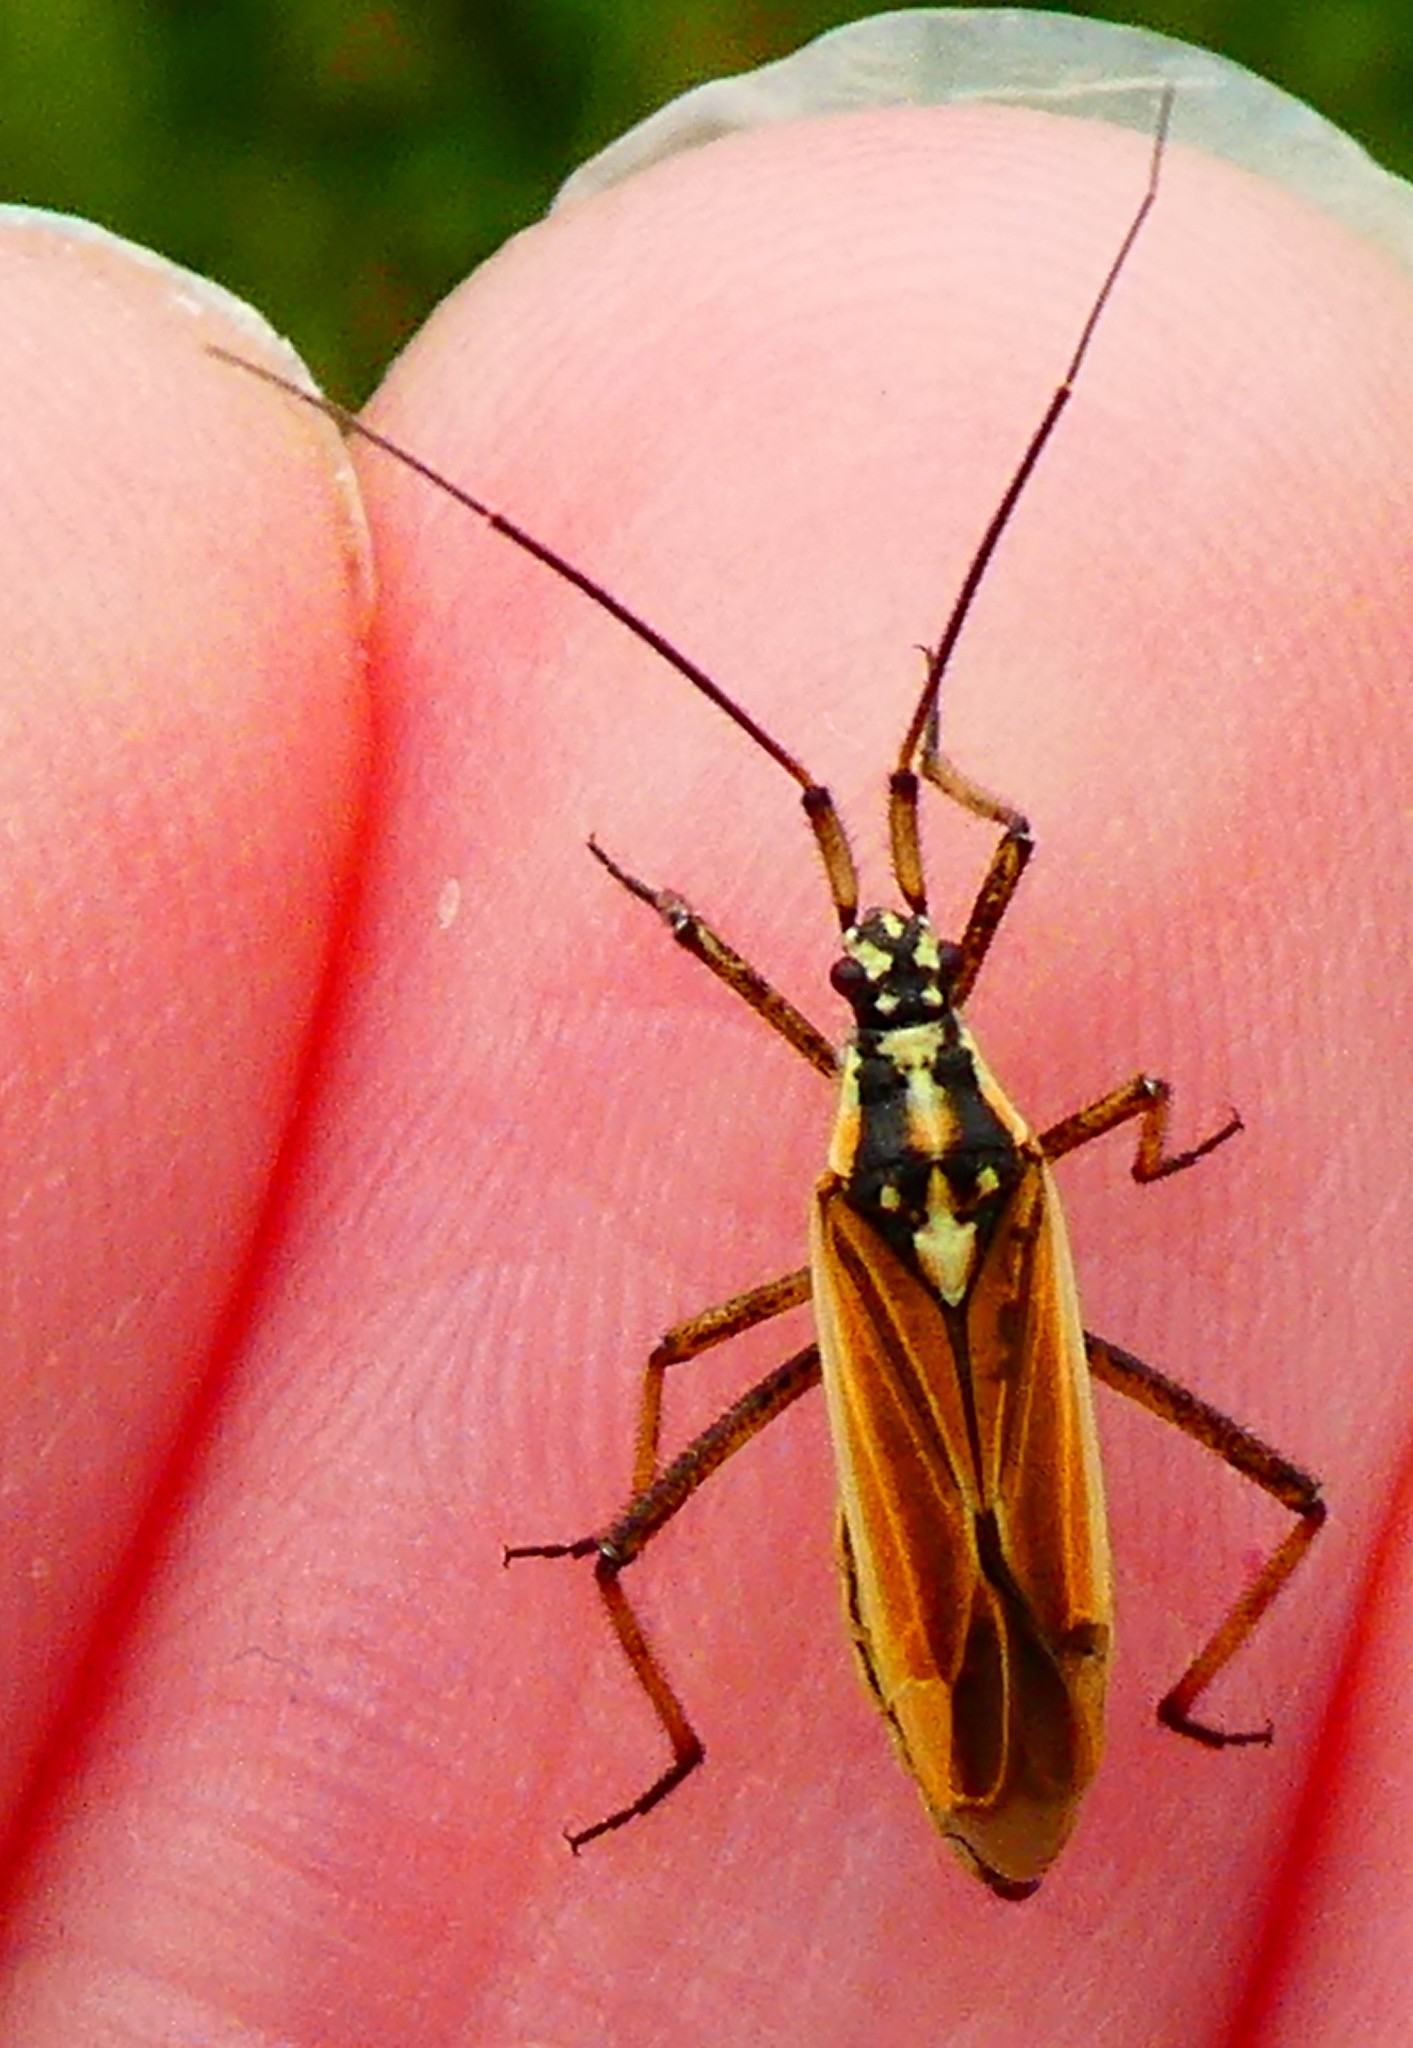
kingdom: Animalia
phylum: Arthropoda
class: Insecta
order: Hemiptera
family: Miridae
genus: Leptopterna
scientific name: Leptopterna dolabrata
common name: Meadow plant bug
